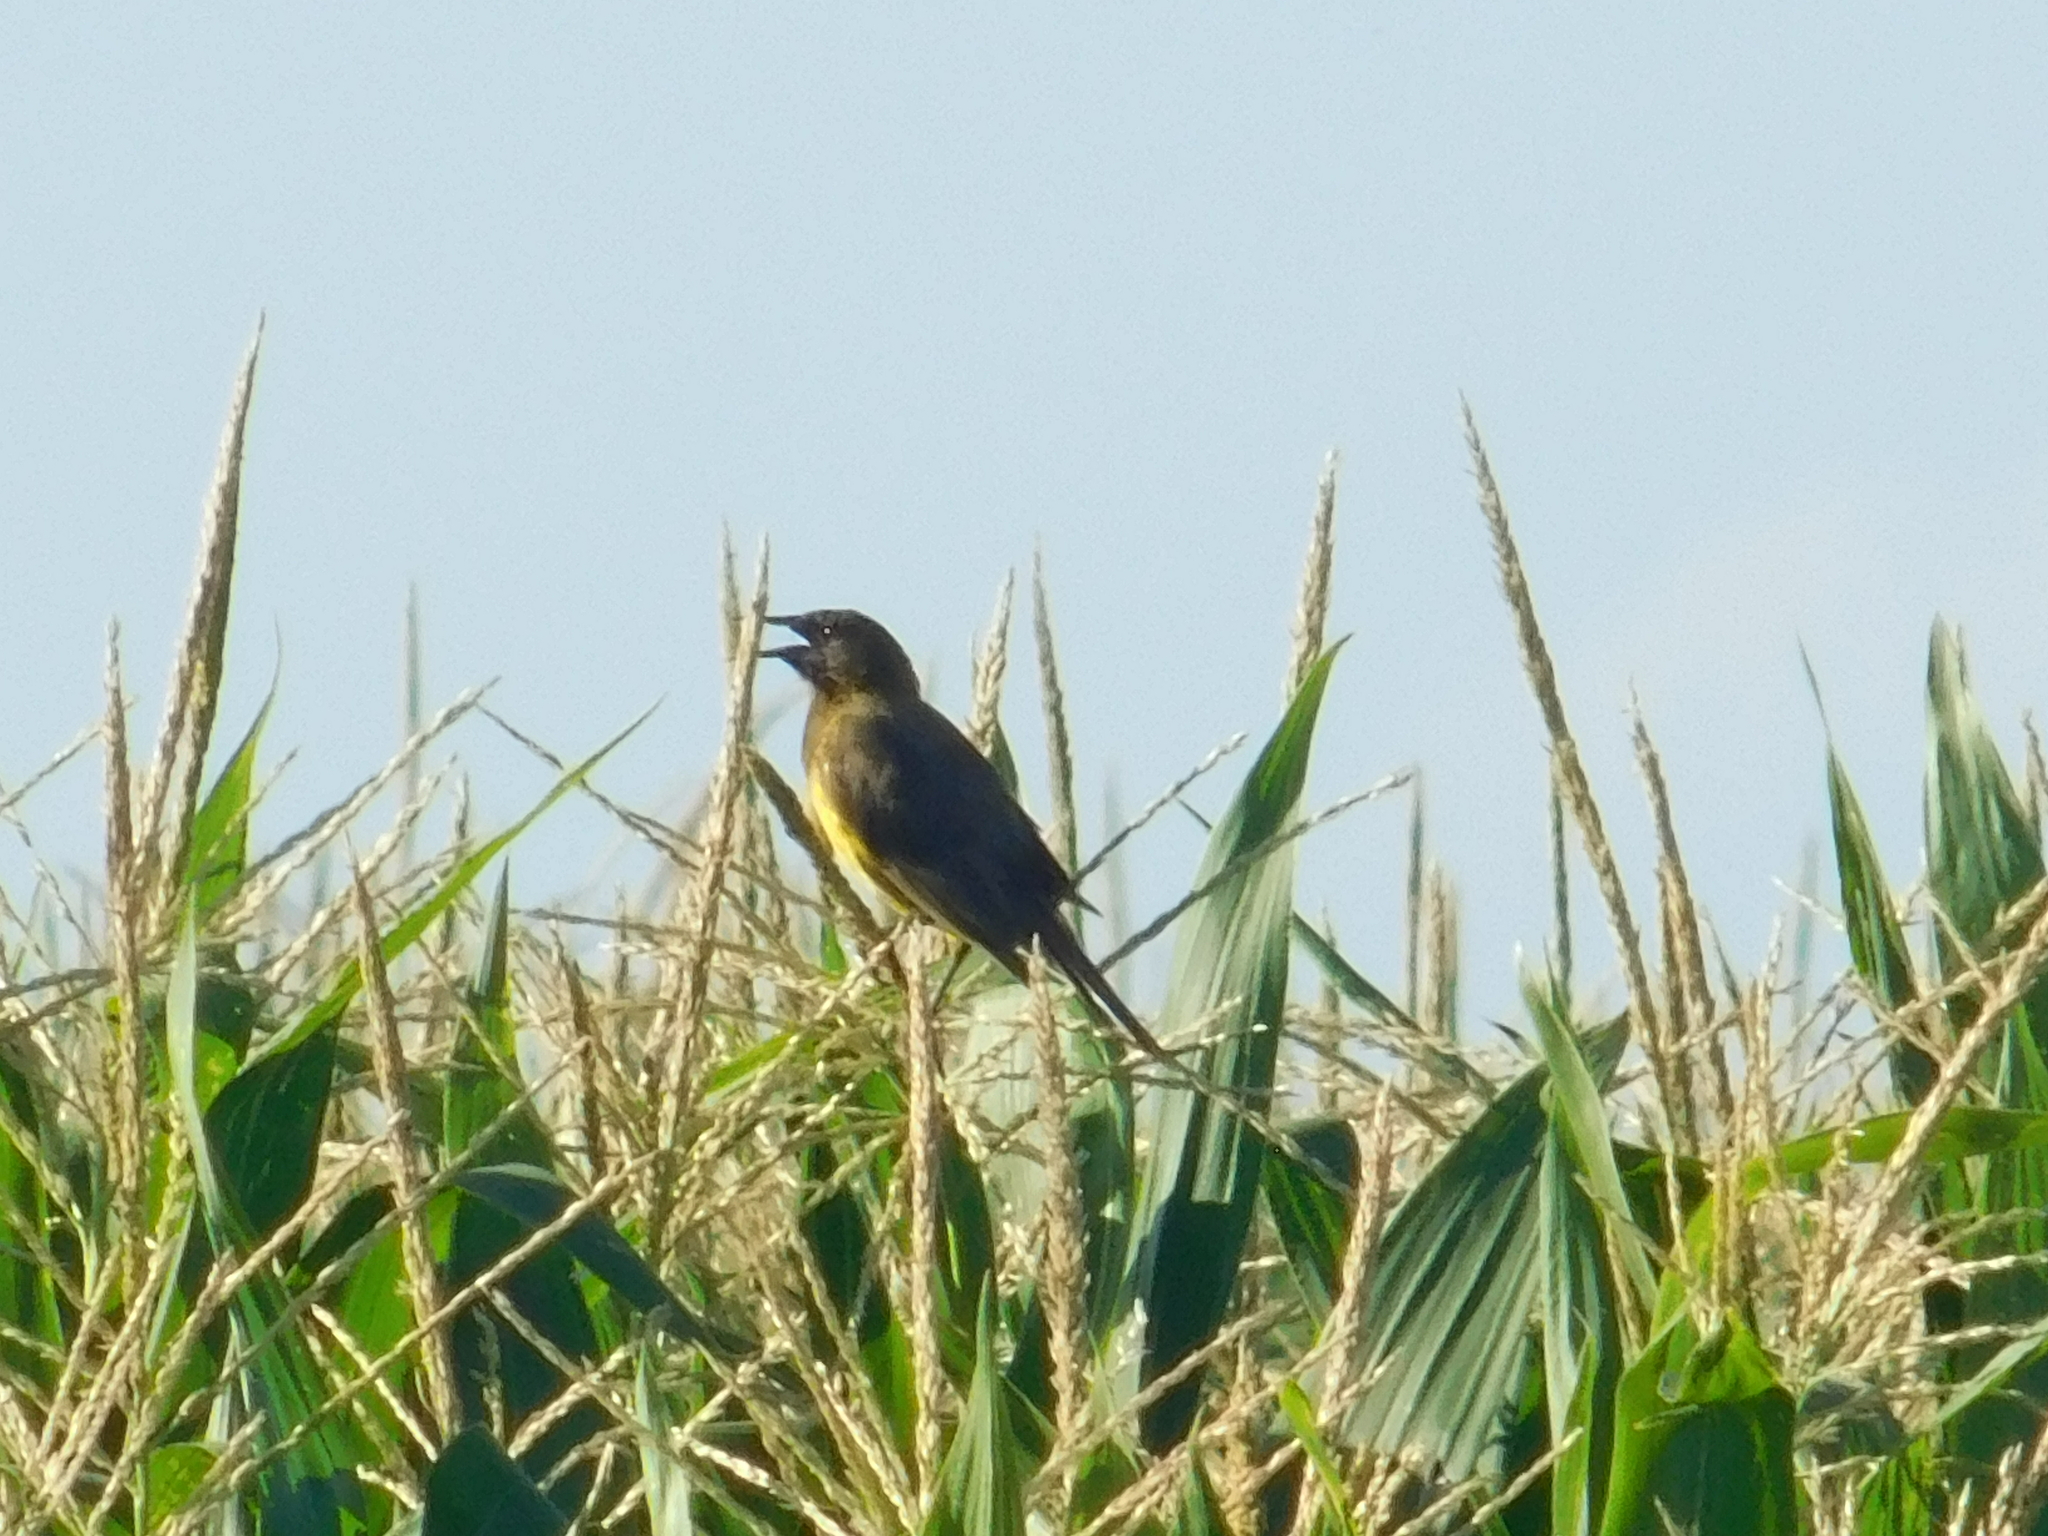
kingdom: Animalia
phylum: Chordata
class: Aves
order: Passeriformes
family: Icteridae
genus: Pseudoleistes
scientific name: Pseudoleistes virescens
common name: Brown-and-yellow marshbird
